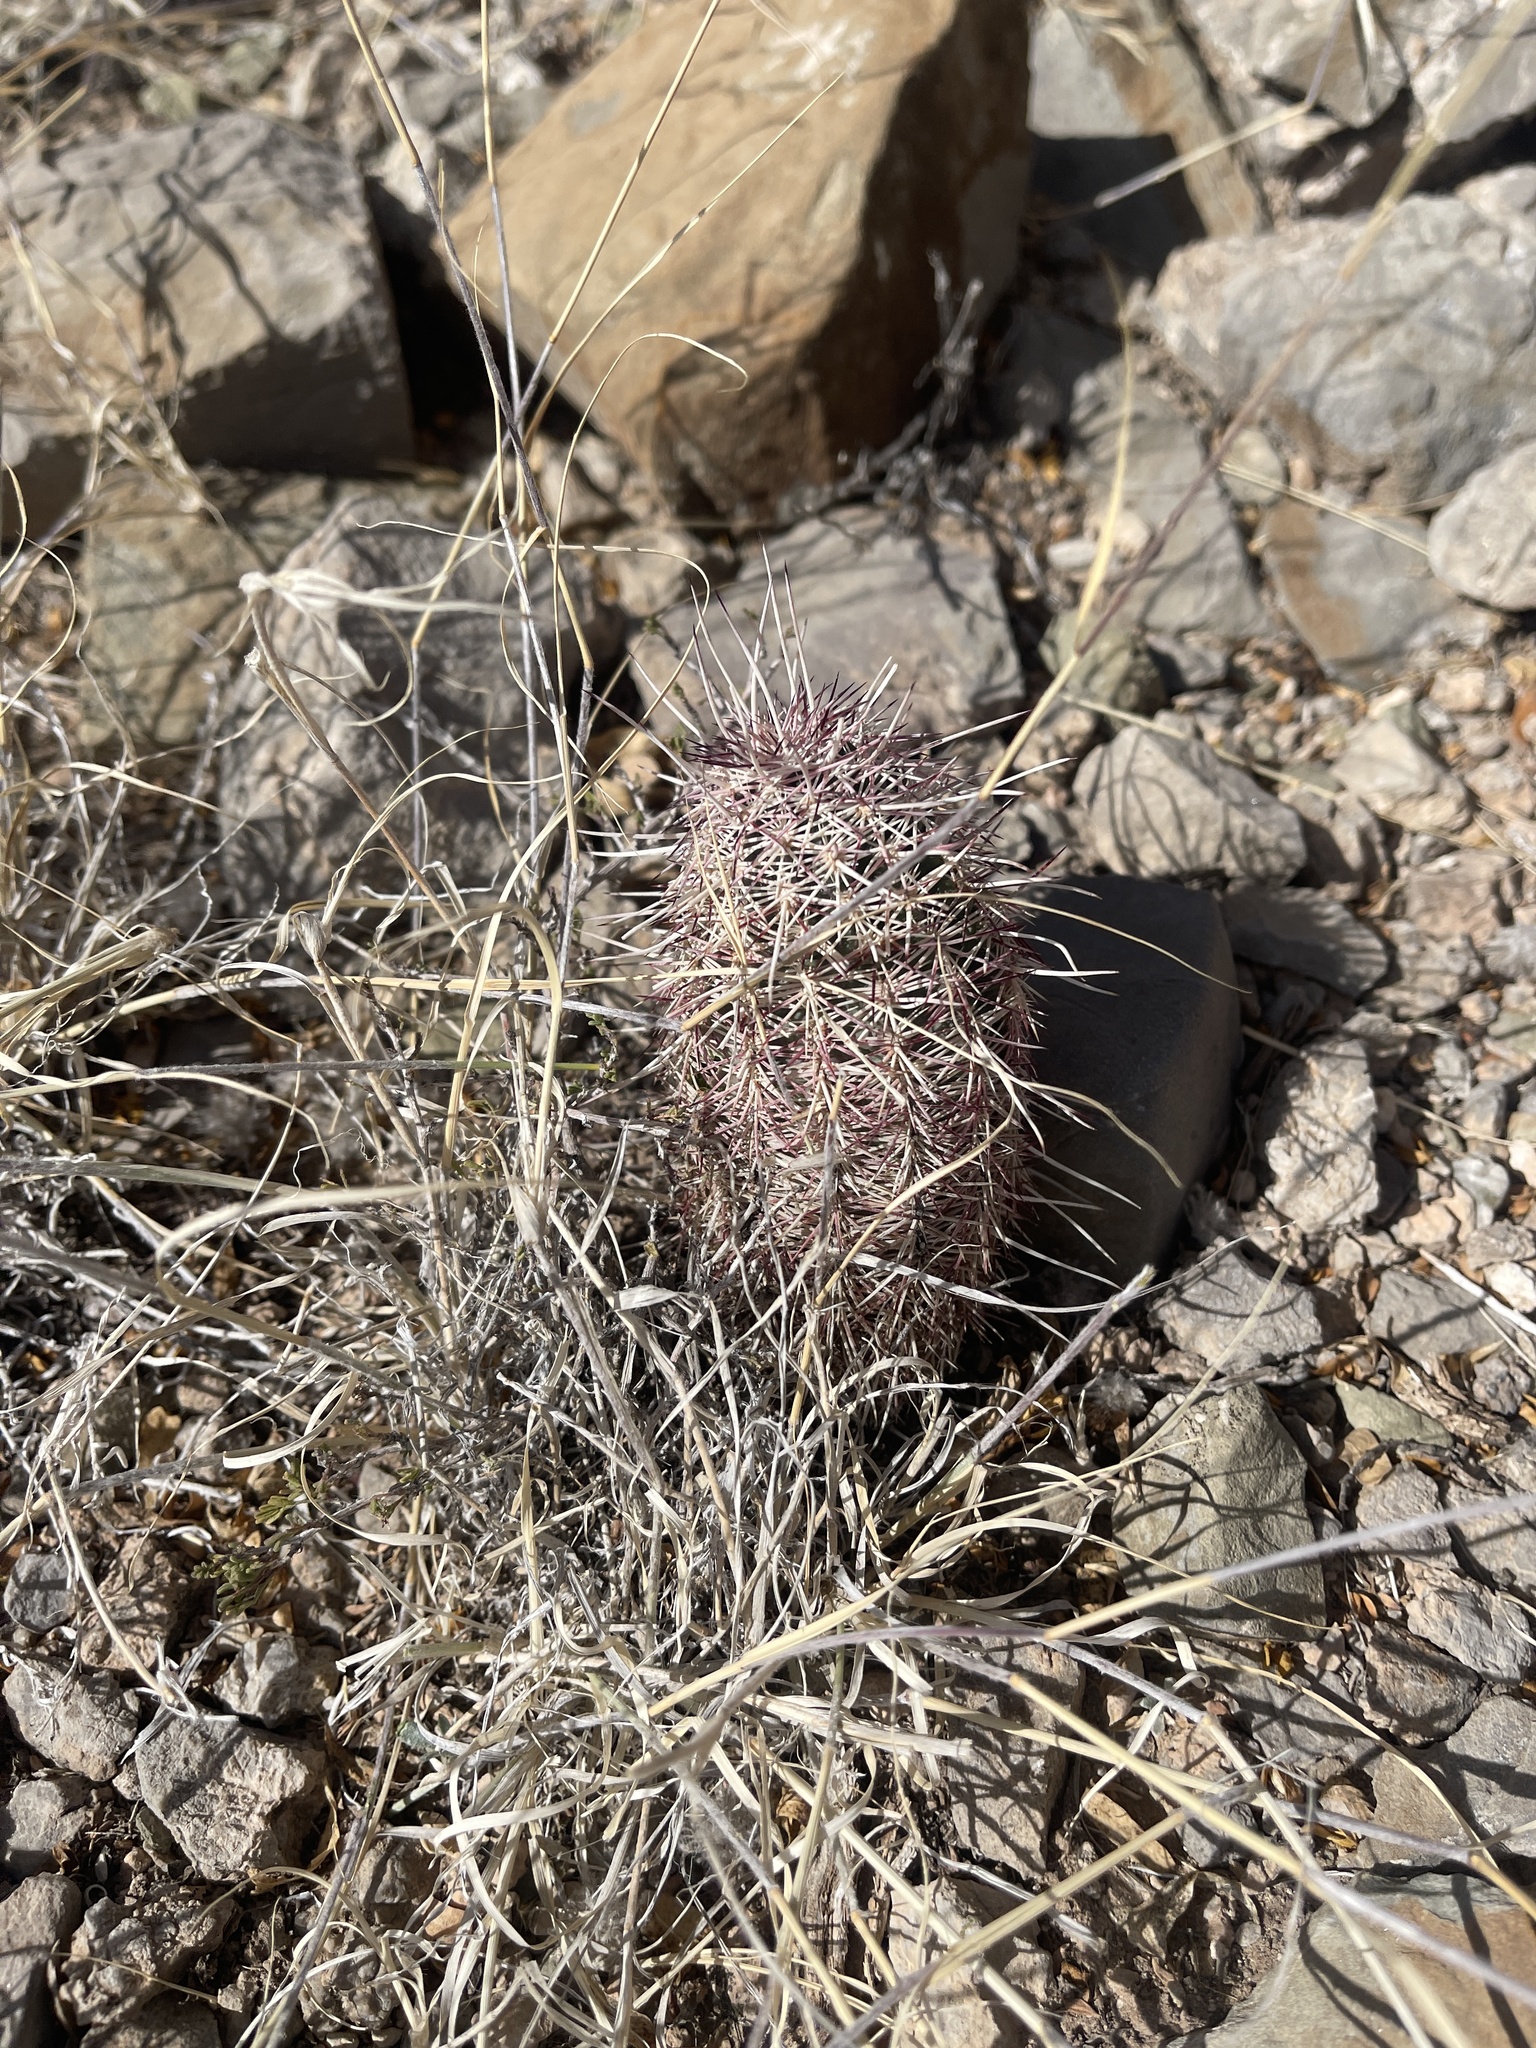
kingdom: Plantae
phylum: Tracheophyta
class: Magnoliopsida
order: Caryophyllales
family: Cactaceae
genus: Echinocereus
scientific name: Echinocereus viridiflorus
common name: Nylon hedgehog cactus
